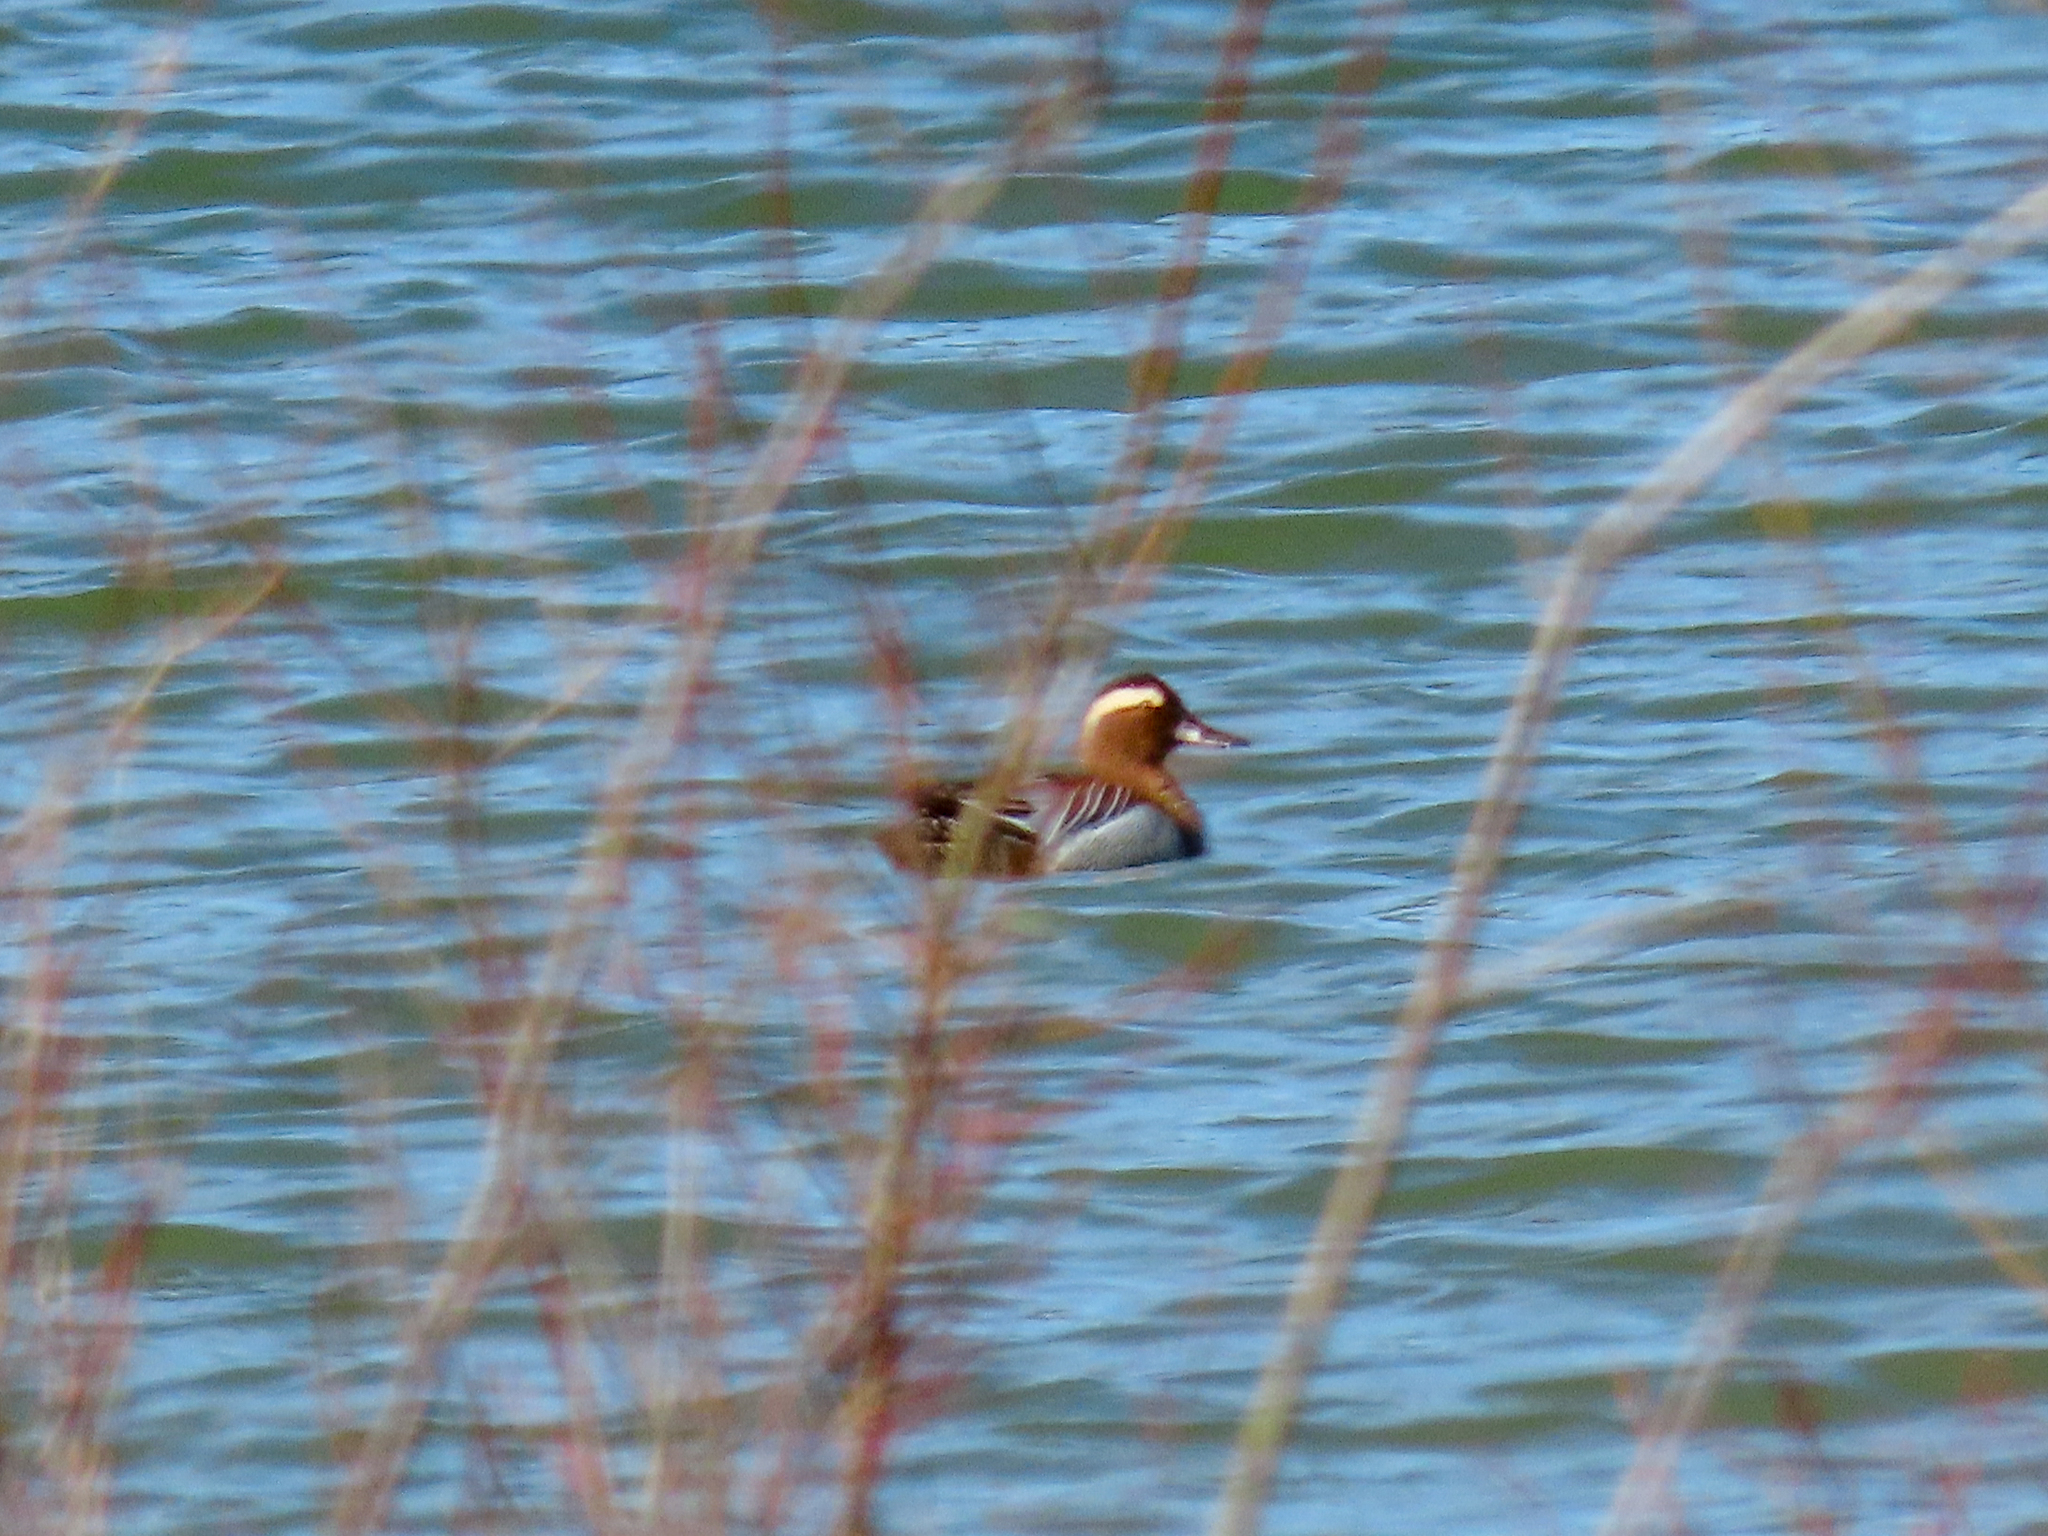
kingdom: Animalia
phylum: Chordata
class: Aves
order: Anseriformes
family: Anatidae
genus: Spatula
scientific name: Spatula querquedula
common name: Garganey
